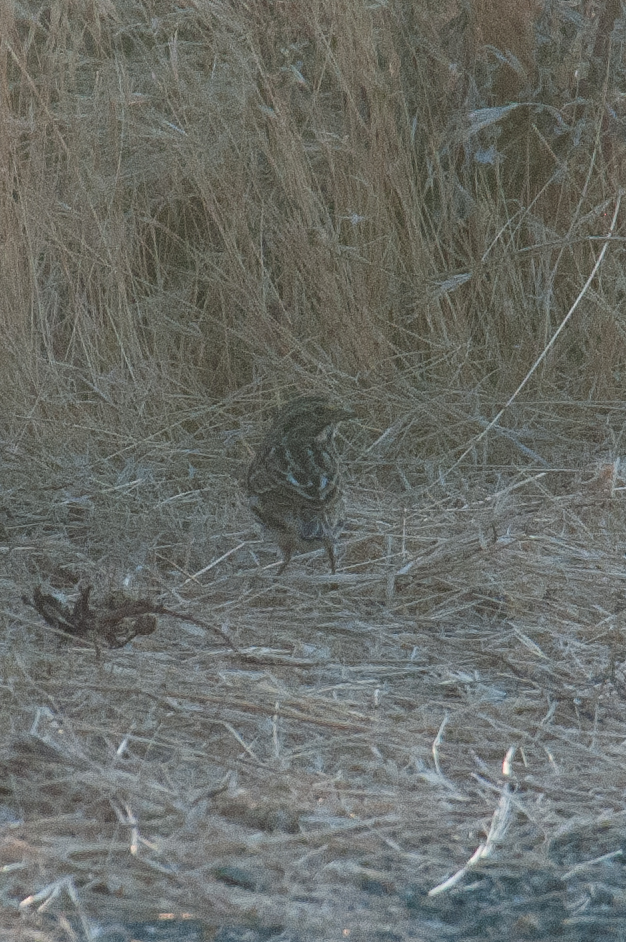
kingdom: Animalia
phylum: Chordata
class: Aves
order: Passeriformes
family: Passerellidae
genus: Passerculus
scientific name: Passerculus sandwichensis
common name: Savannah sparrow
